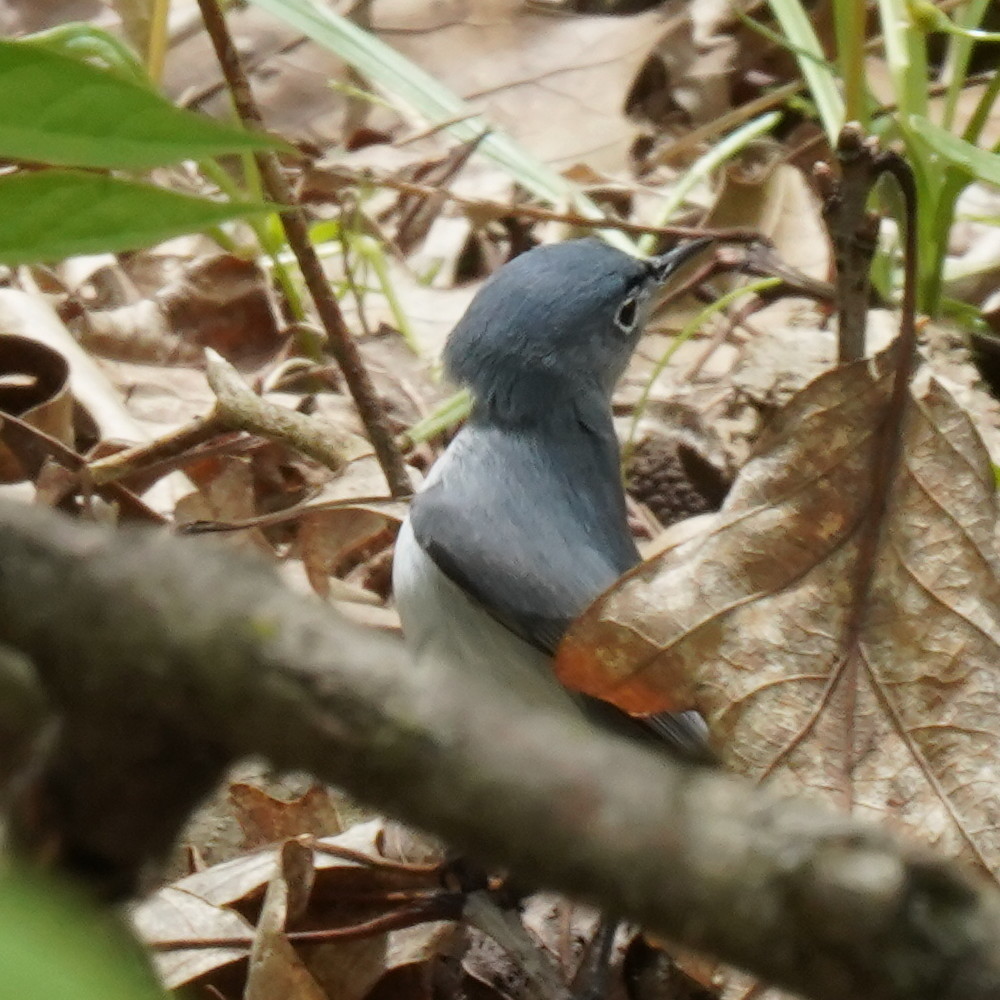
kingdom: Animalia
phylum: Chordata
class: Aves
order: Passeriformes
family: Polioptilidae
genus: Polioptila
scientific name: Polioptila caerulea
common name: Blue-gray gnatcatcher
